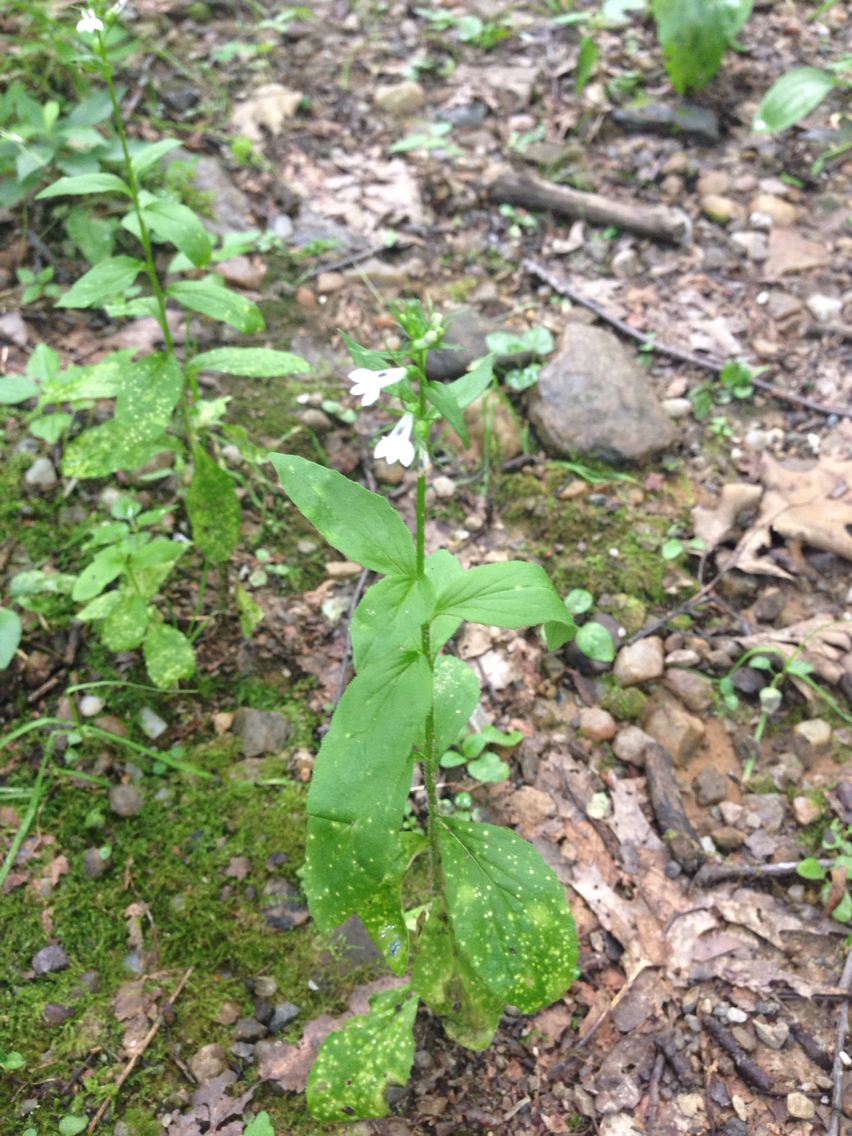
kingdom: Plantae
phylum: Tracheophyta
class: Magnoliopsida
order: Asterales
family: Campanulaceae
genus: Lobelia
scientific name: Lobelia inflata
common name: Indian tobacco
